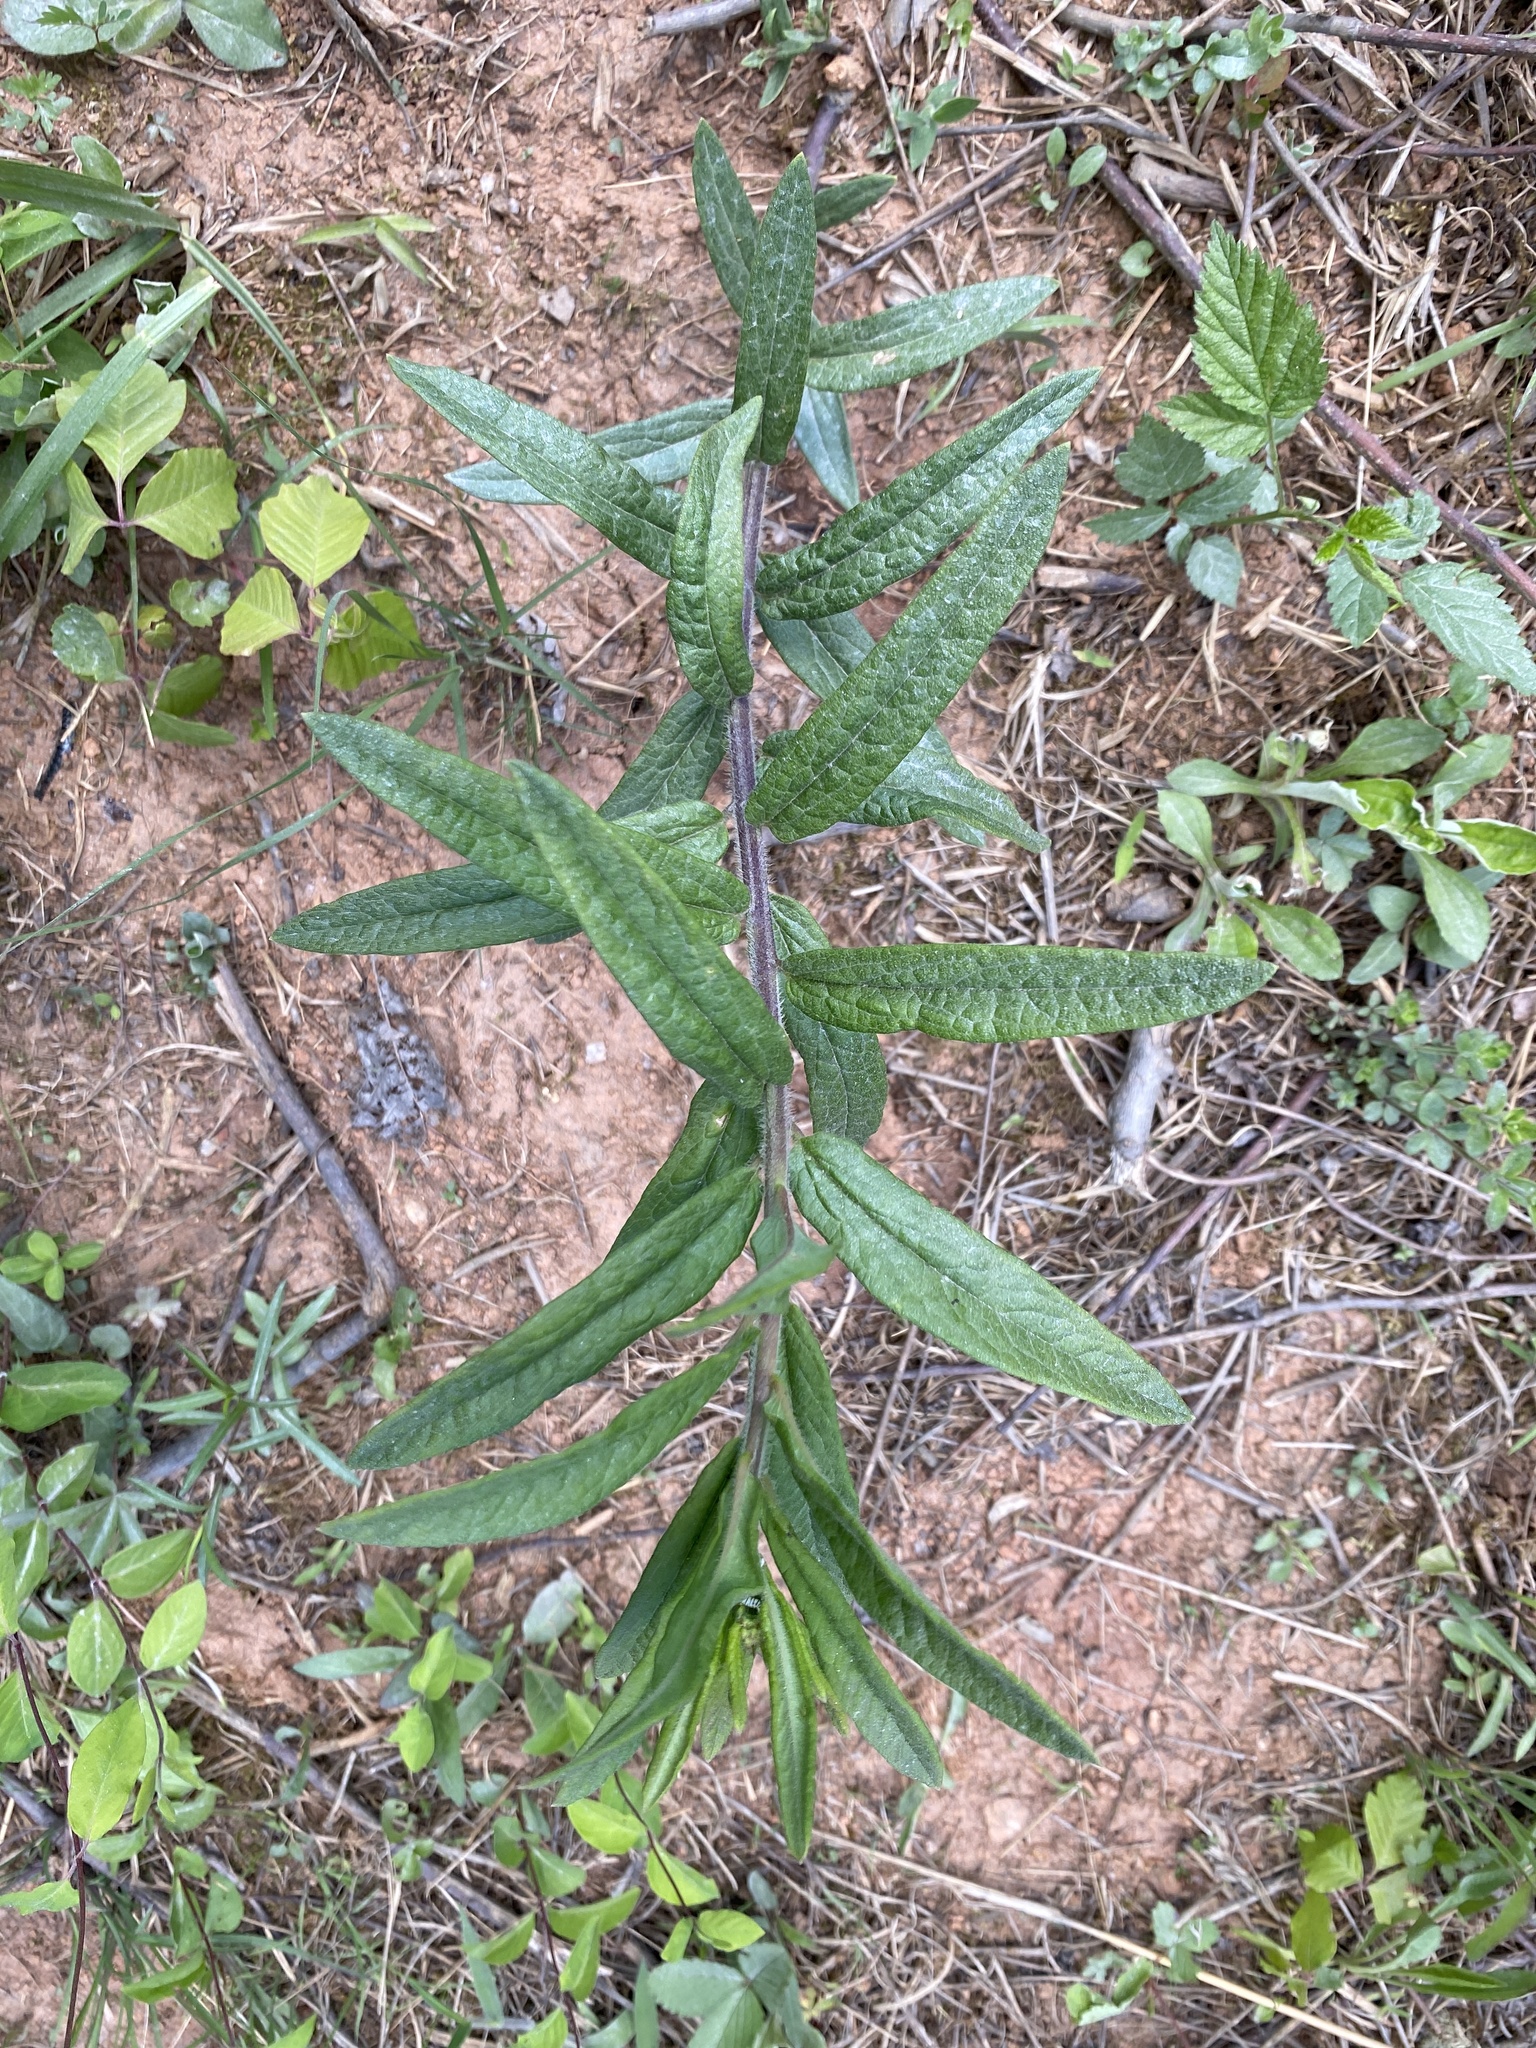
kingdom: Plantae
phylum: Tracheophyta
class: Magnoliopsida
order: Gentianales
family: Apocynaceae
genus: Asclepias
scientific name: Asclepias tuberosa
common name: Butterfly milkweed
